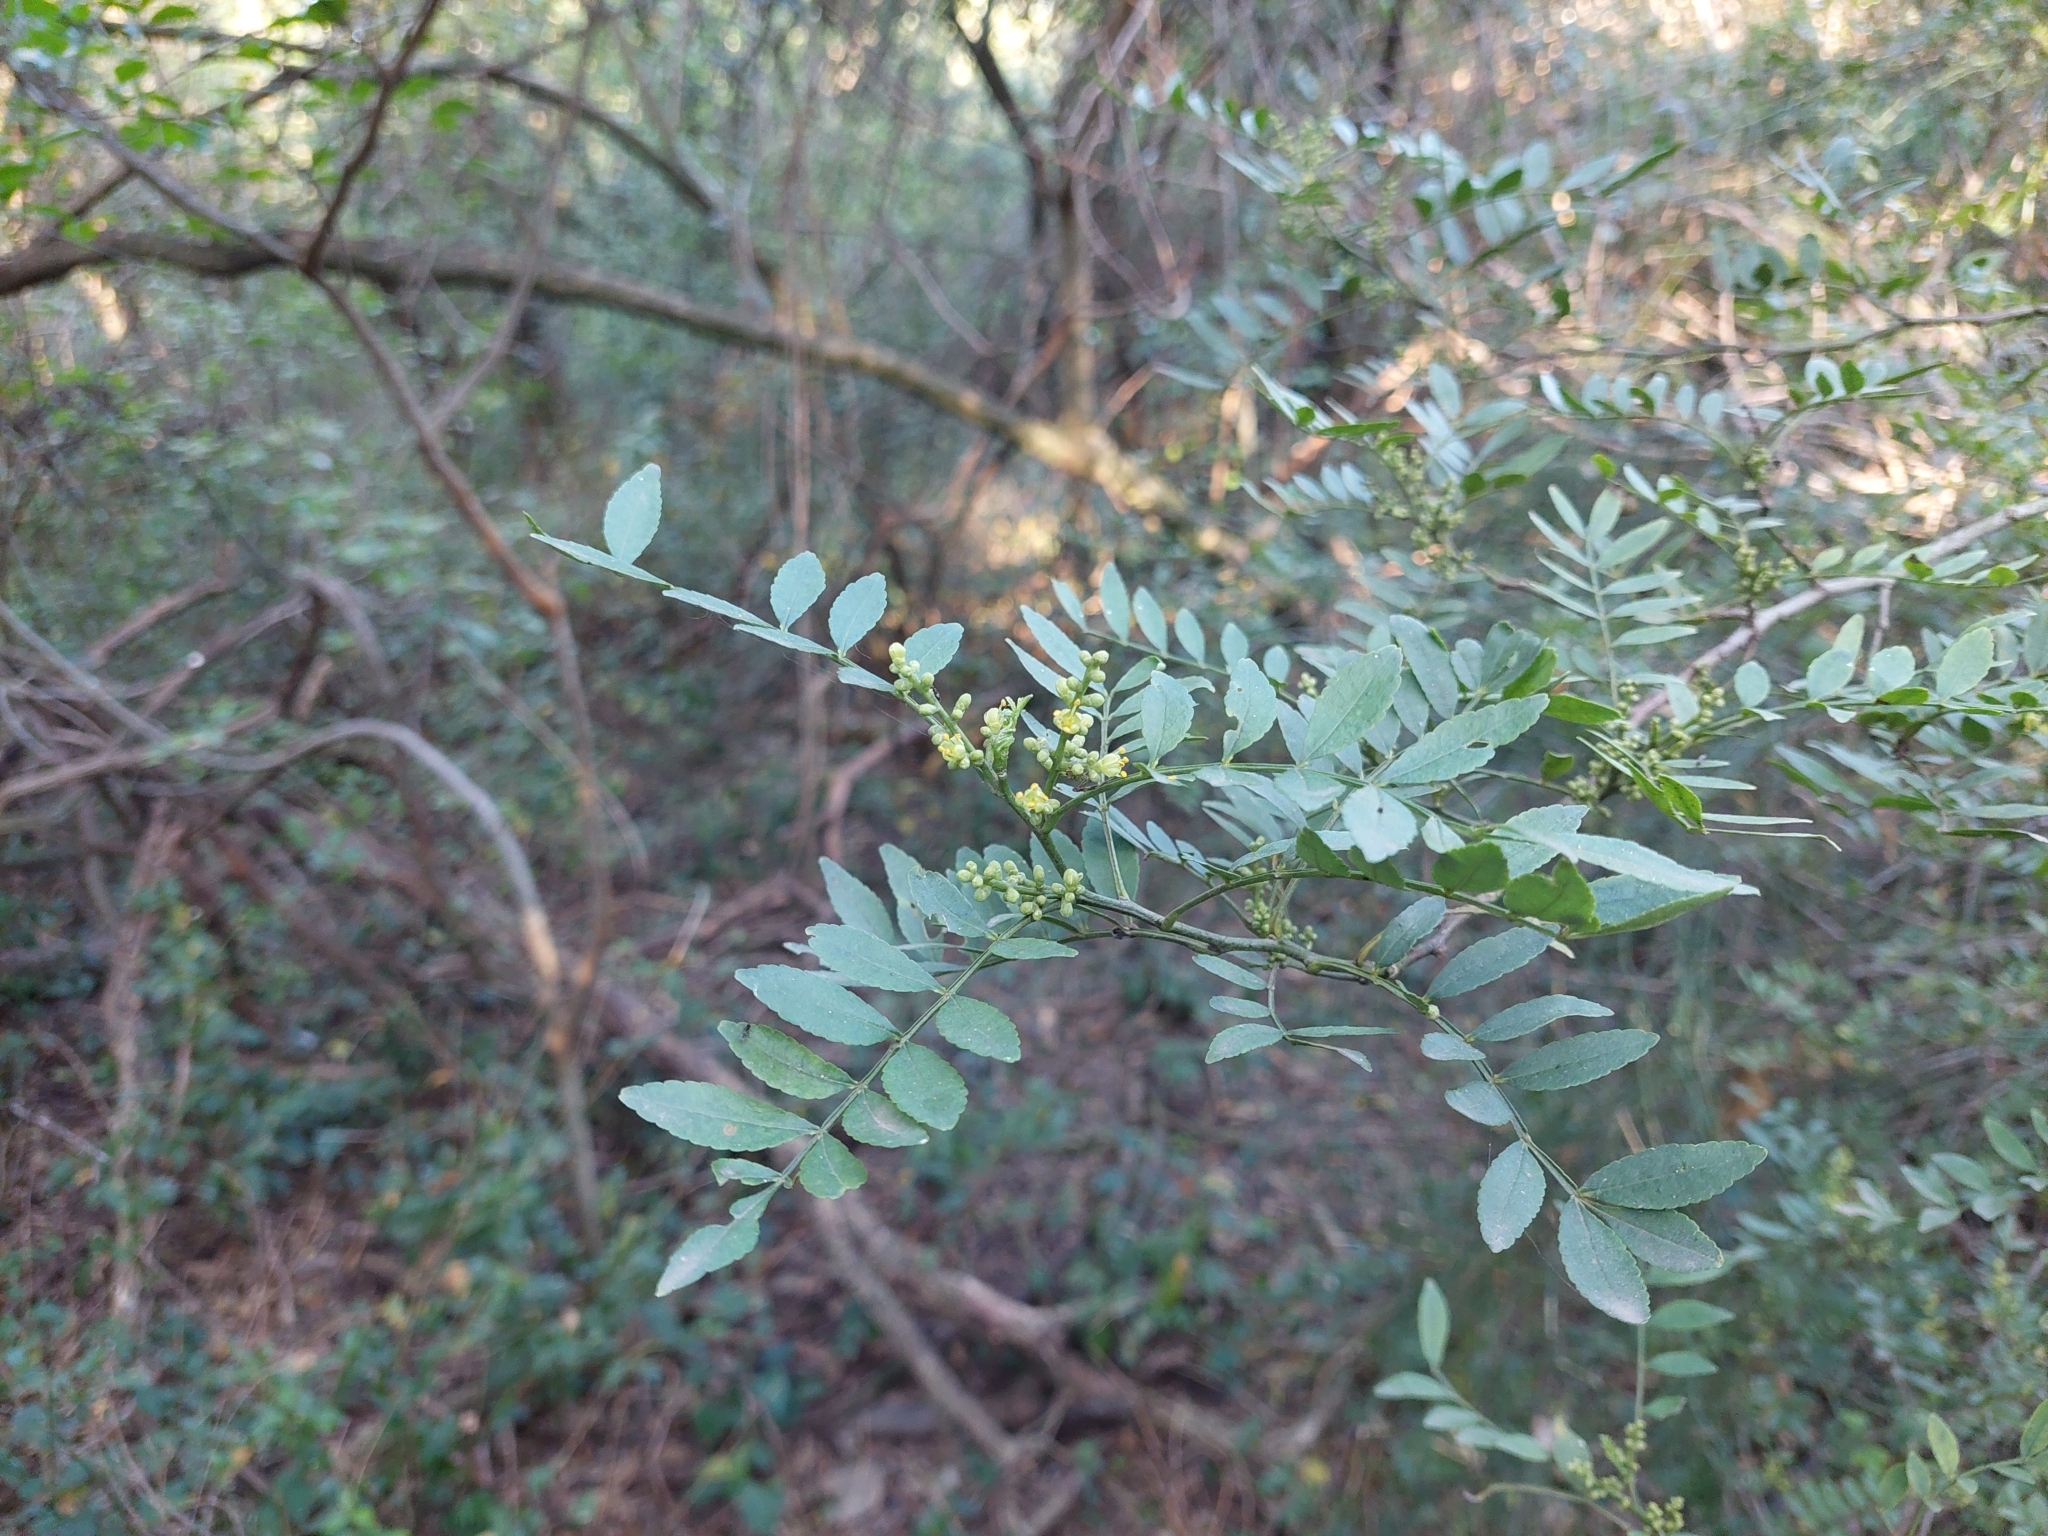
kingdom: Plantae
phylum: Tracheophyta
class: Magnoliopsida
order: Sapindales
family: Rutaceae
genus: Zanthoxylum
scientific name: Zanthoxylum fagara
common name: Lime prickly-ash
